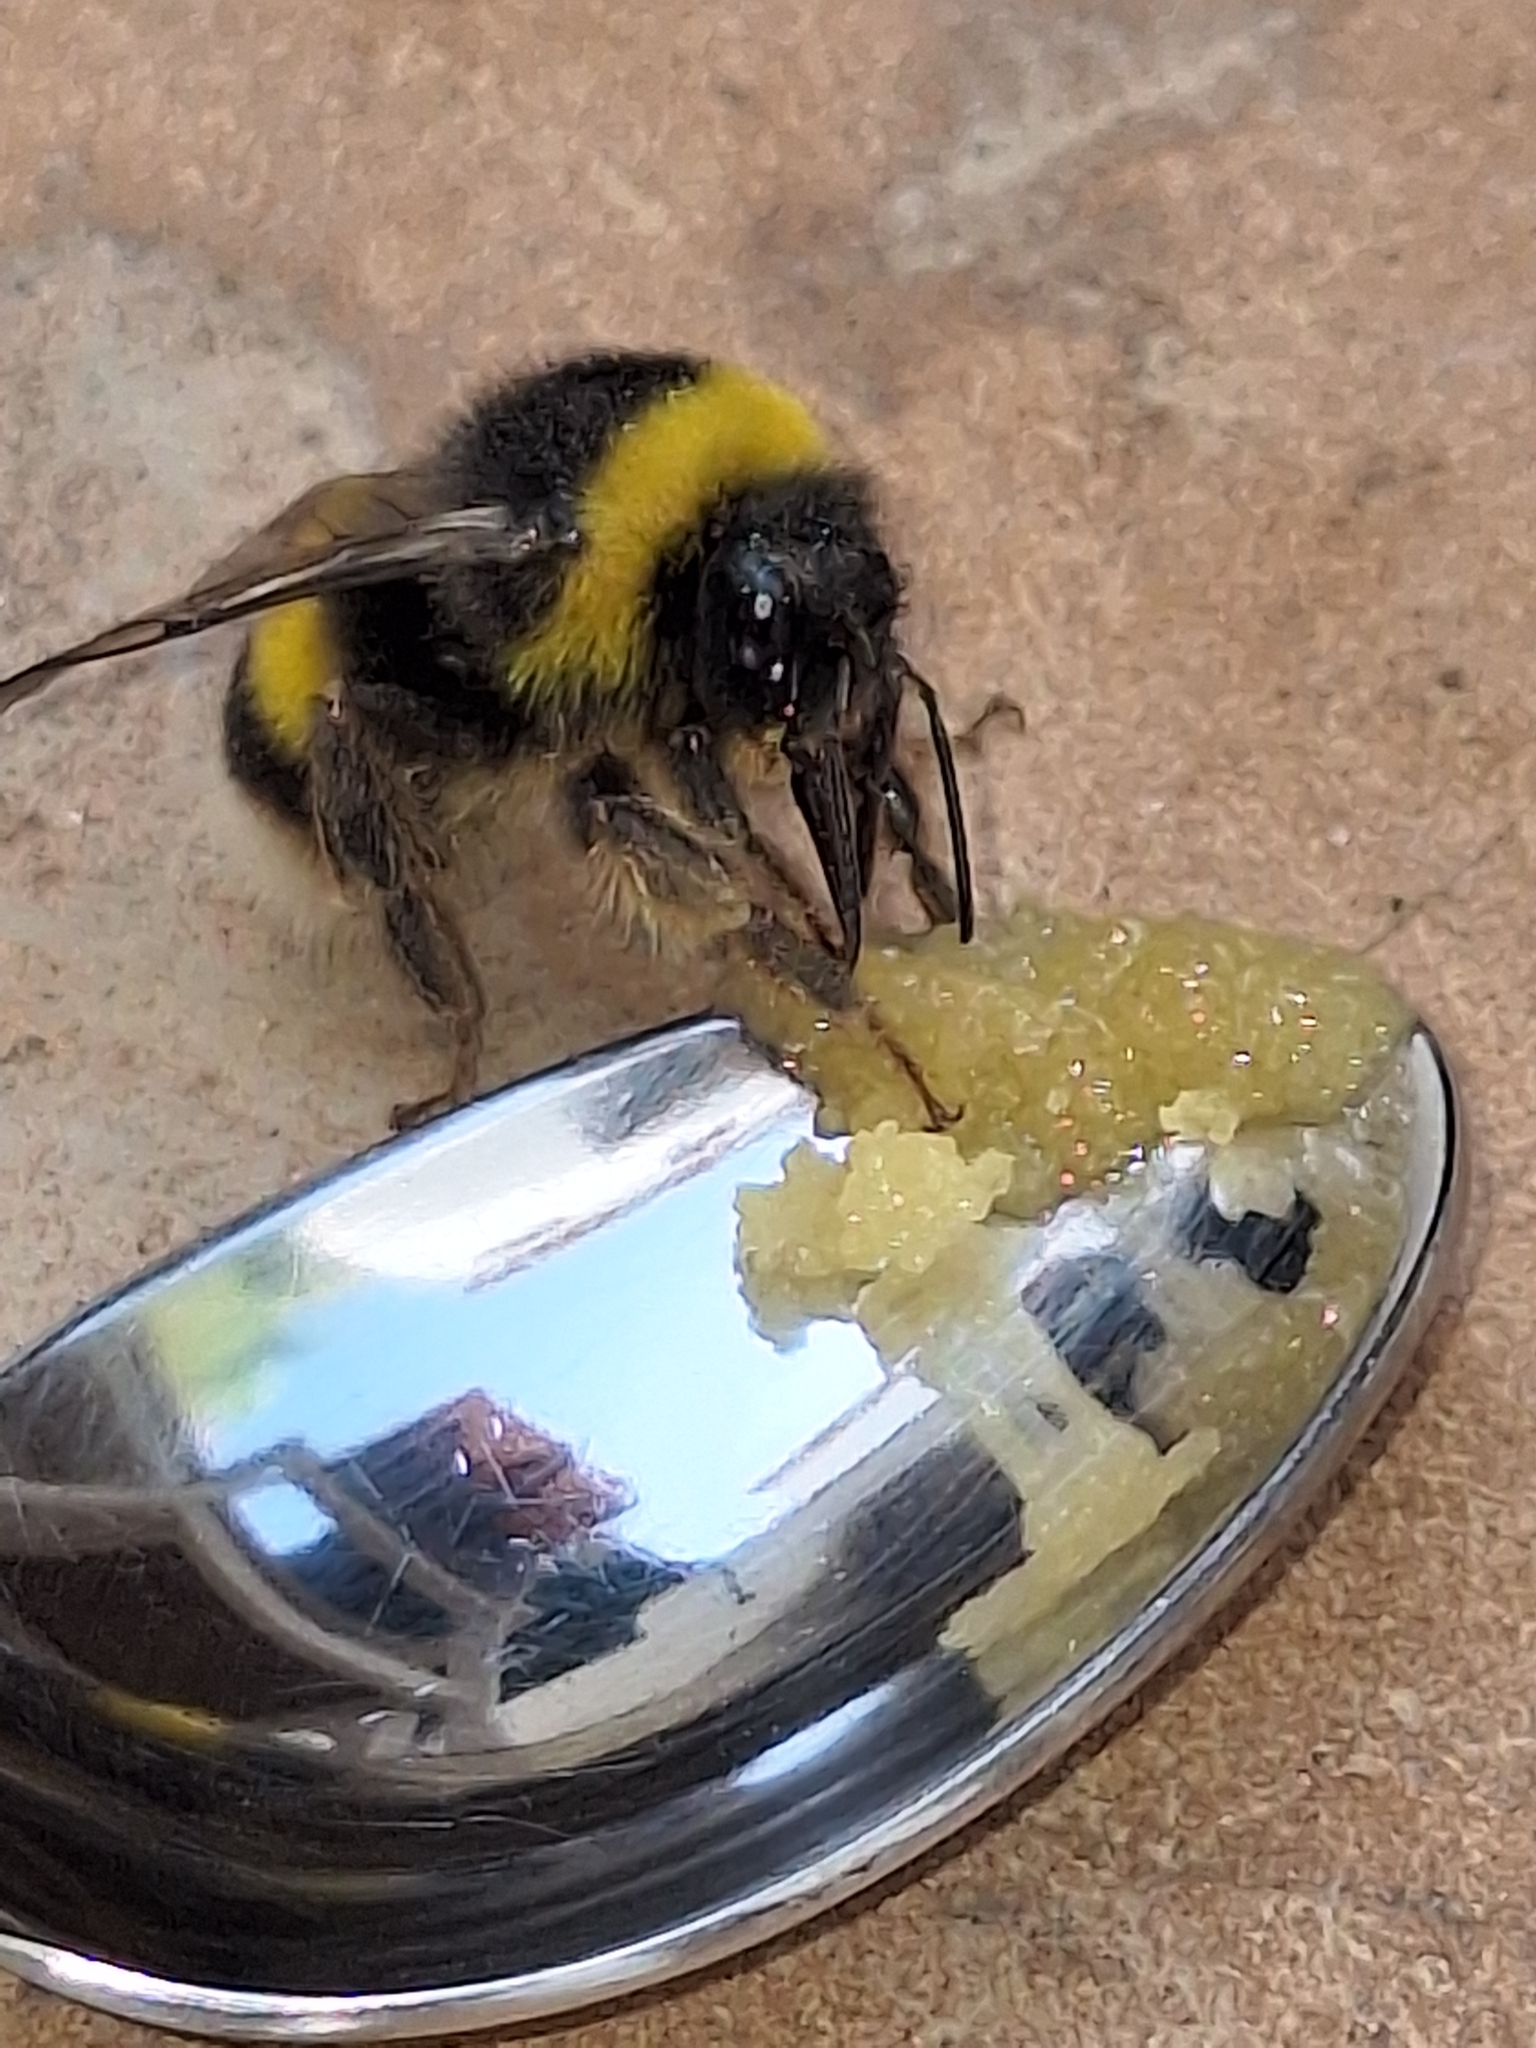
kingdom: Animalia
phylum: Arthropoda
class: Insecta
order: Hymenoptera
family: Apidae
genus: Bombus
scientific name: Bombus terrestris
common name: Buff-tailed bumblebee
